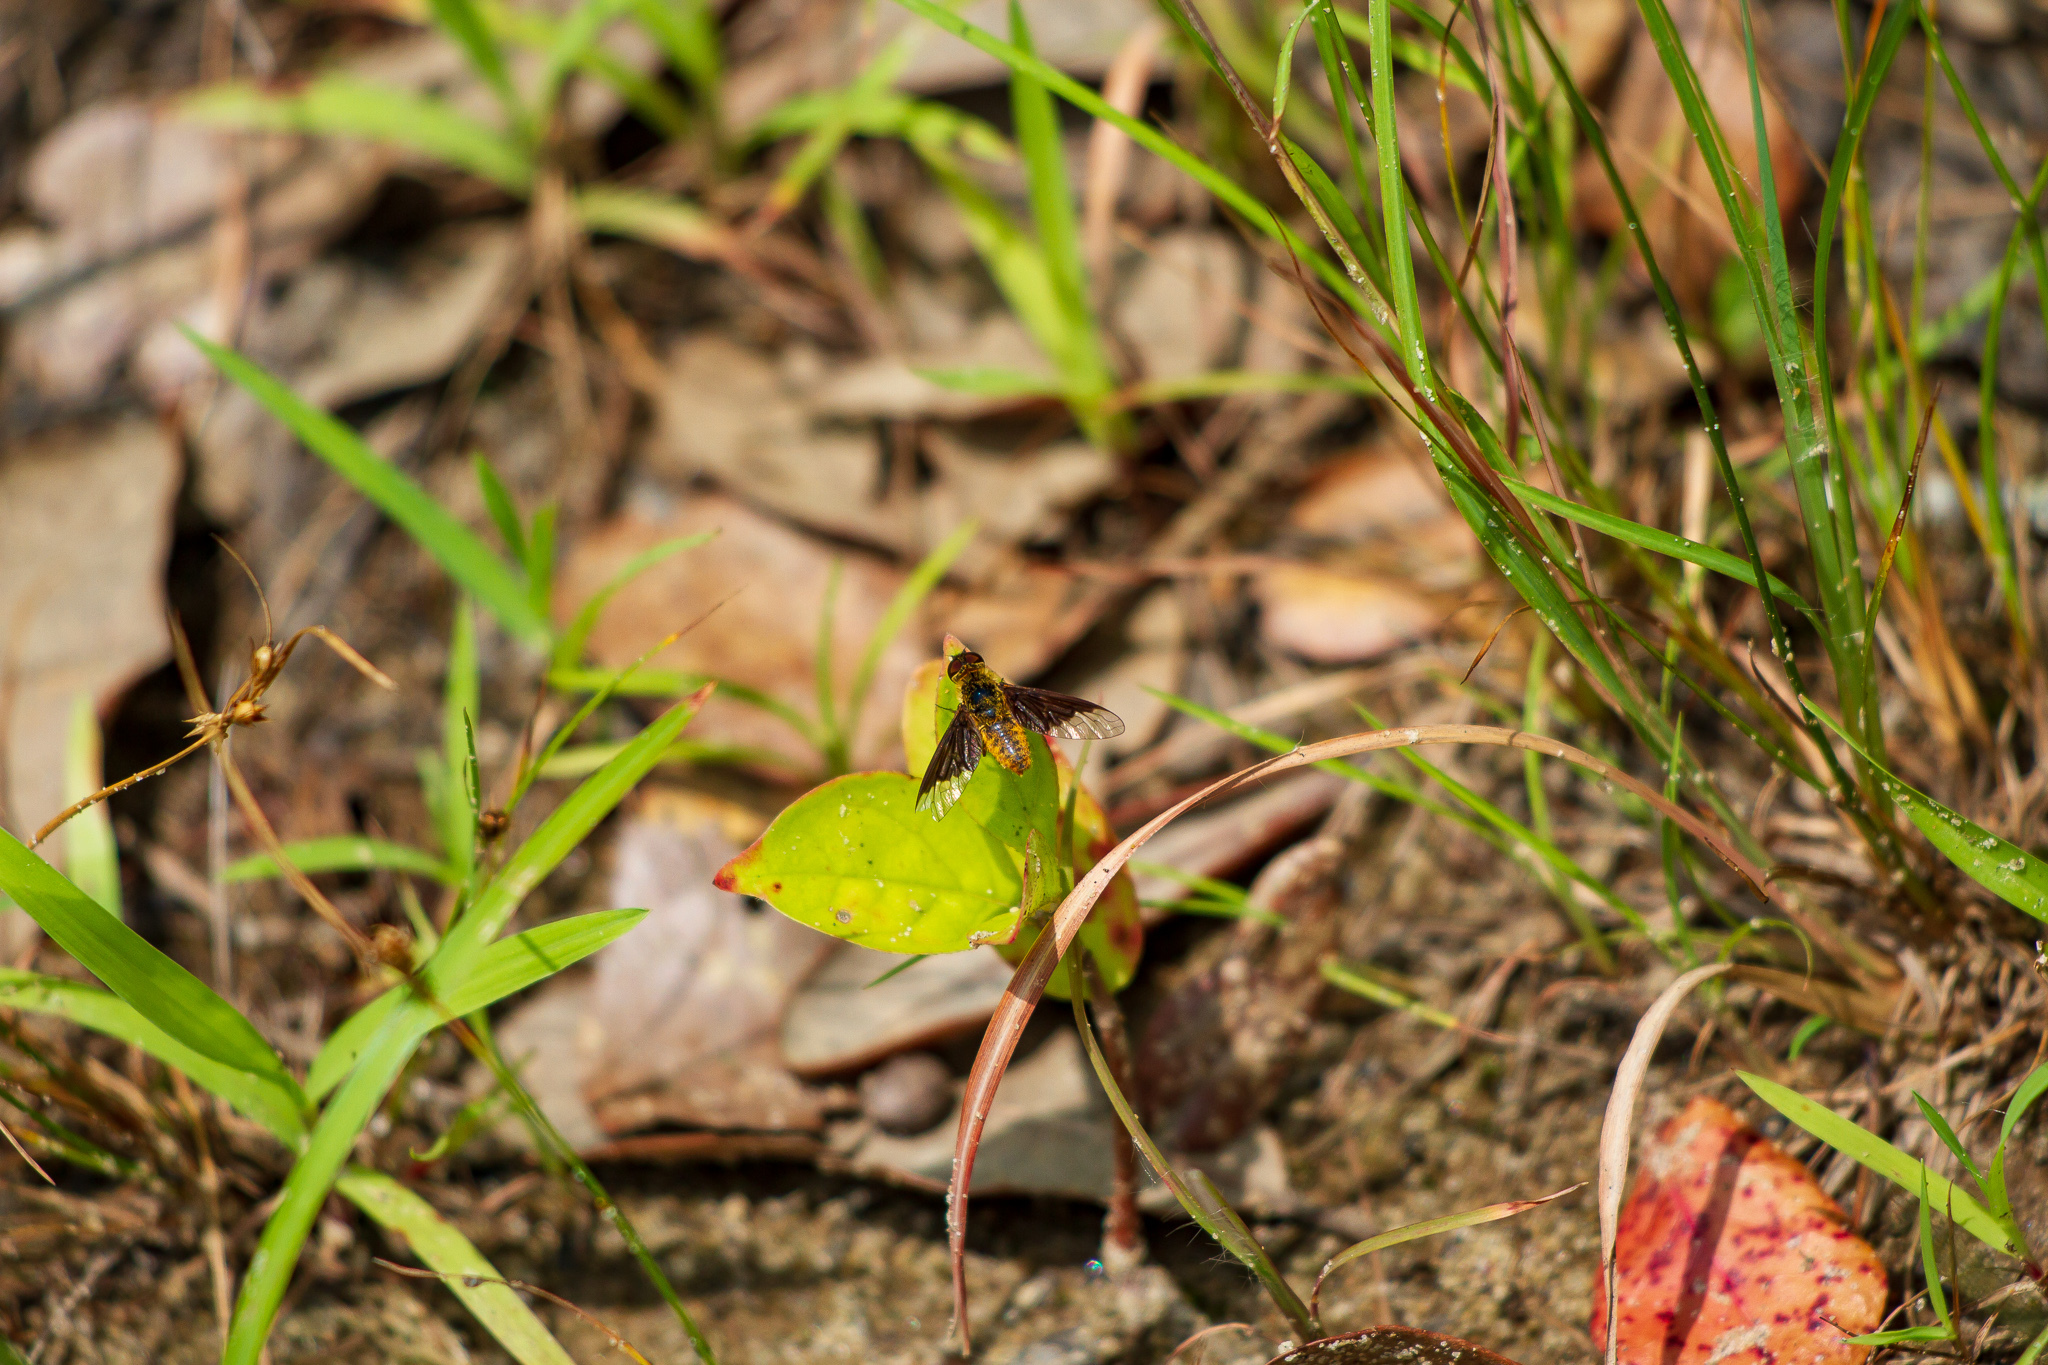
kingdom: Animalia
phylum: Arthropoda
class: Insecta
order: Diptera
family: Bombyliidae
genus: Chrysanthrax
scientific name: Chrysanthrax cypris
